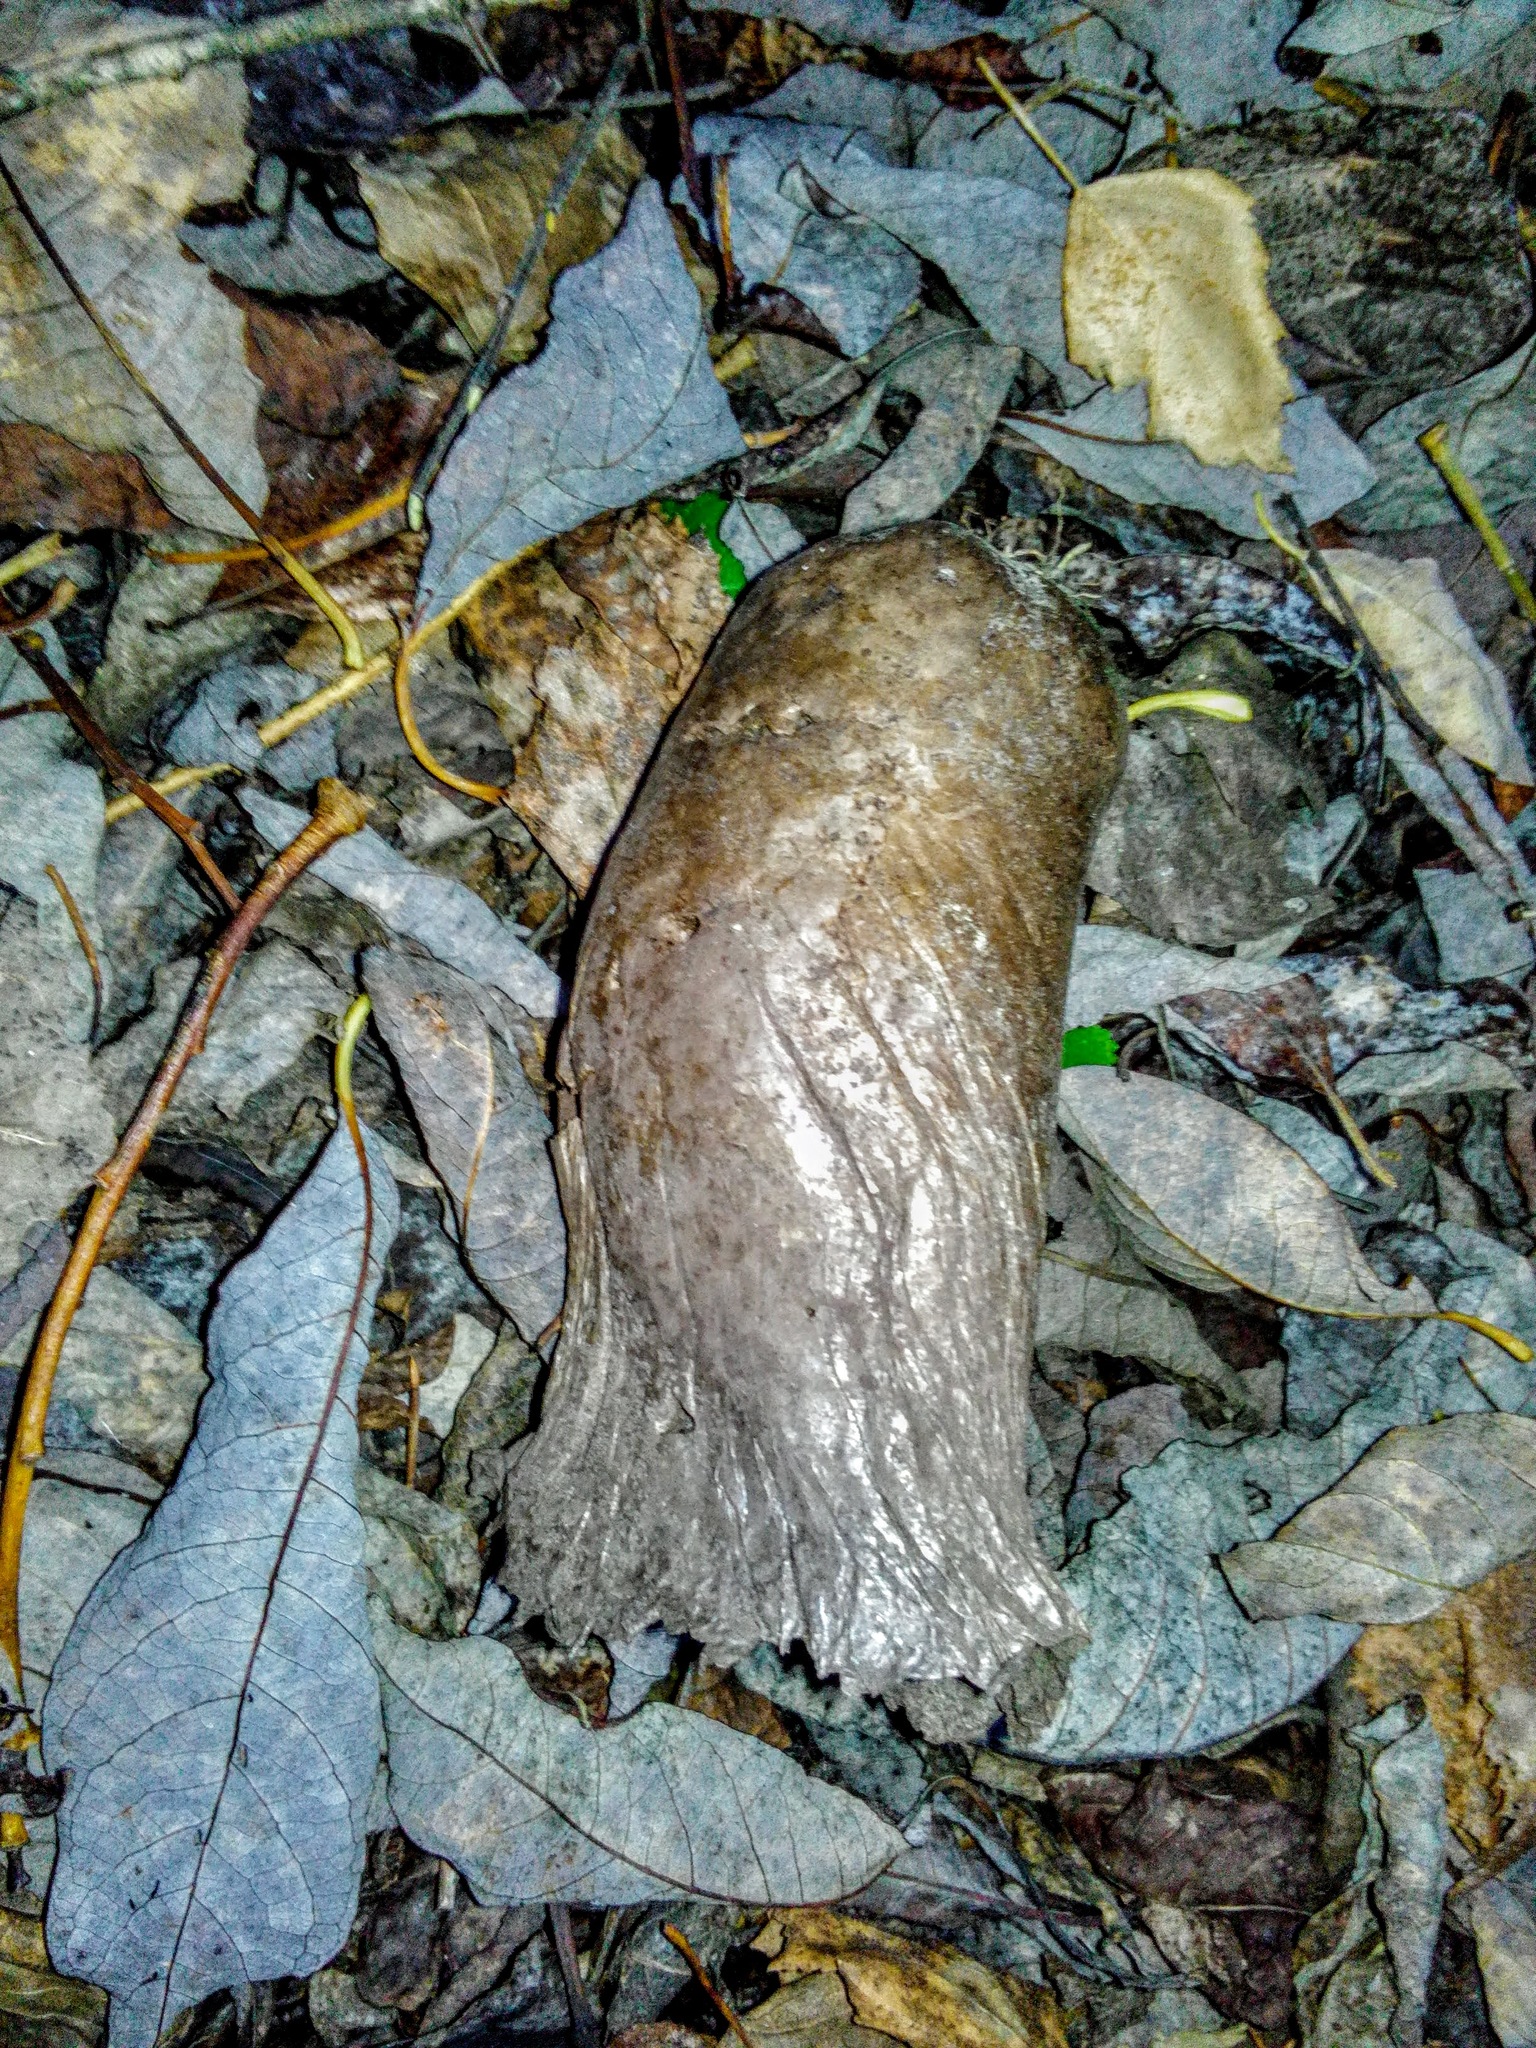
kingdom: Fungi
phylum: Basidiomycota
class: Agaricomycetes
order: Agaricales
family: Lycoperdaceae
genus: Lycoperdon
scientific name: Lycoperdon excipuliforme
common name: Pestle puffball
